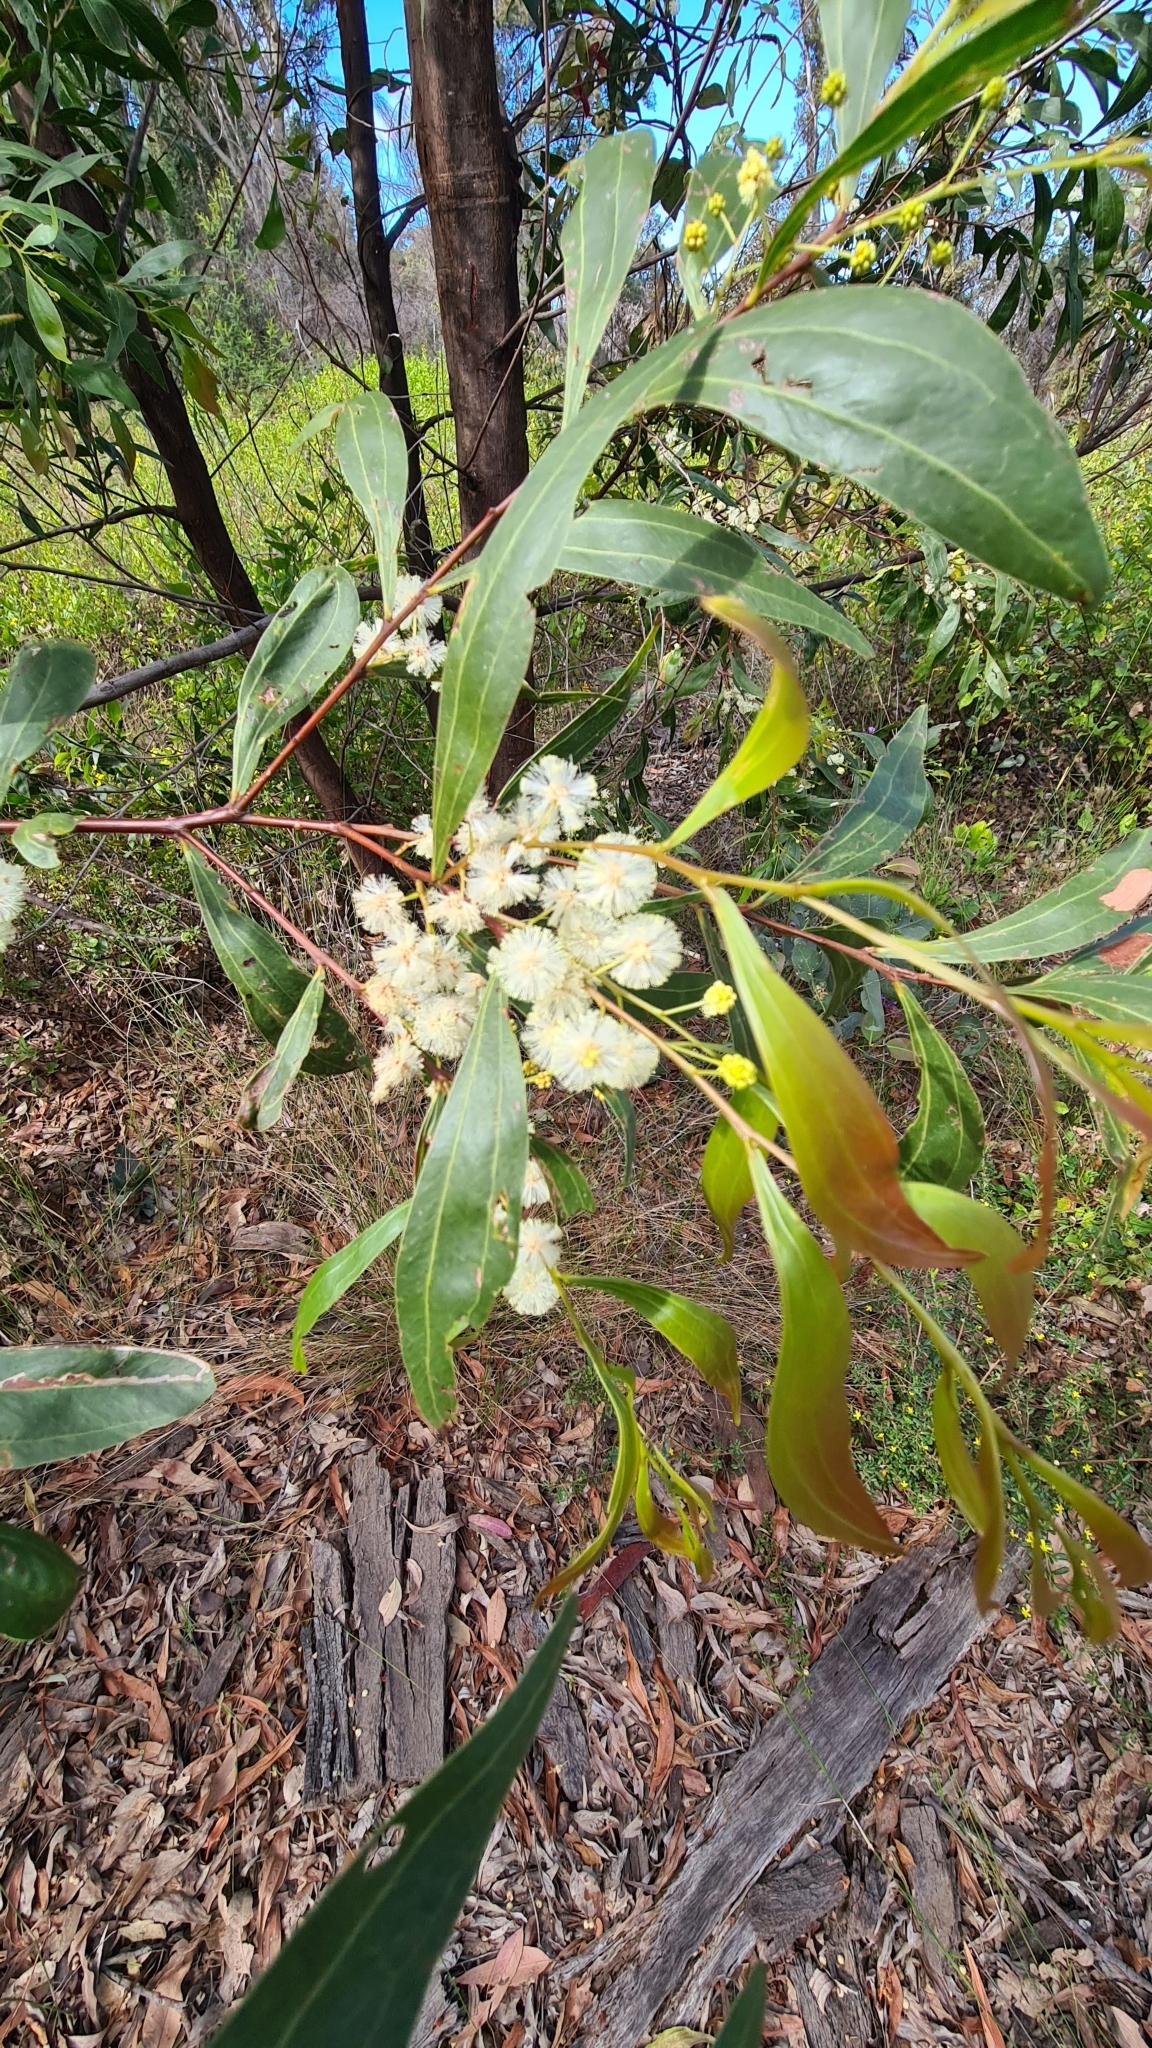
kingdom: Plantae
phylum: Tracheophyta
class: Magnoliopsida
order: Fabales
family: Fabaceae
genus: Acacia
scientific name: Acacia binervata
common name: Two-veined hickory
